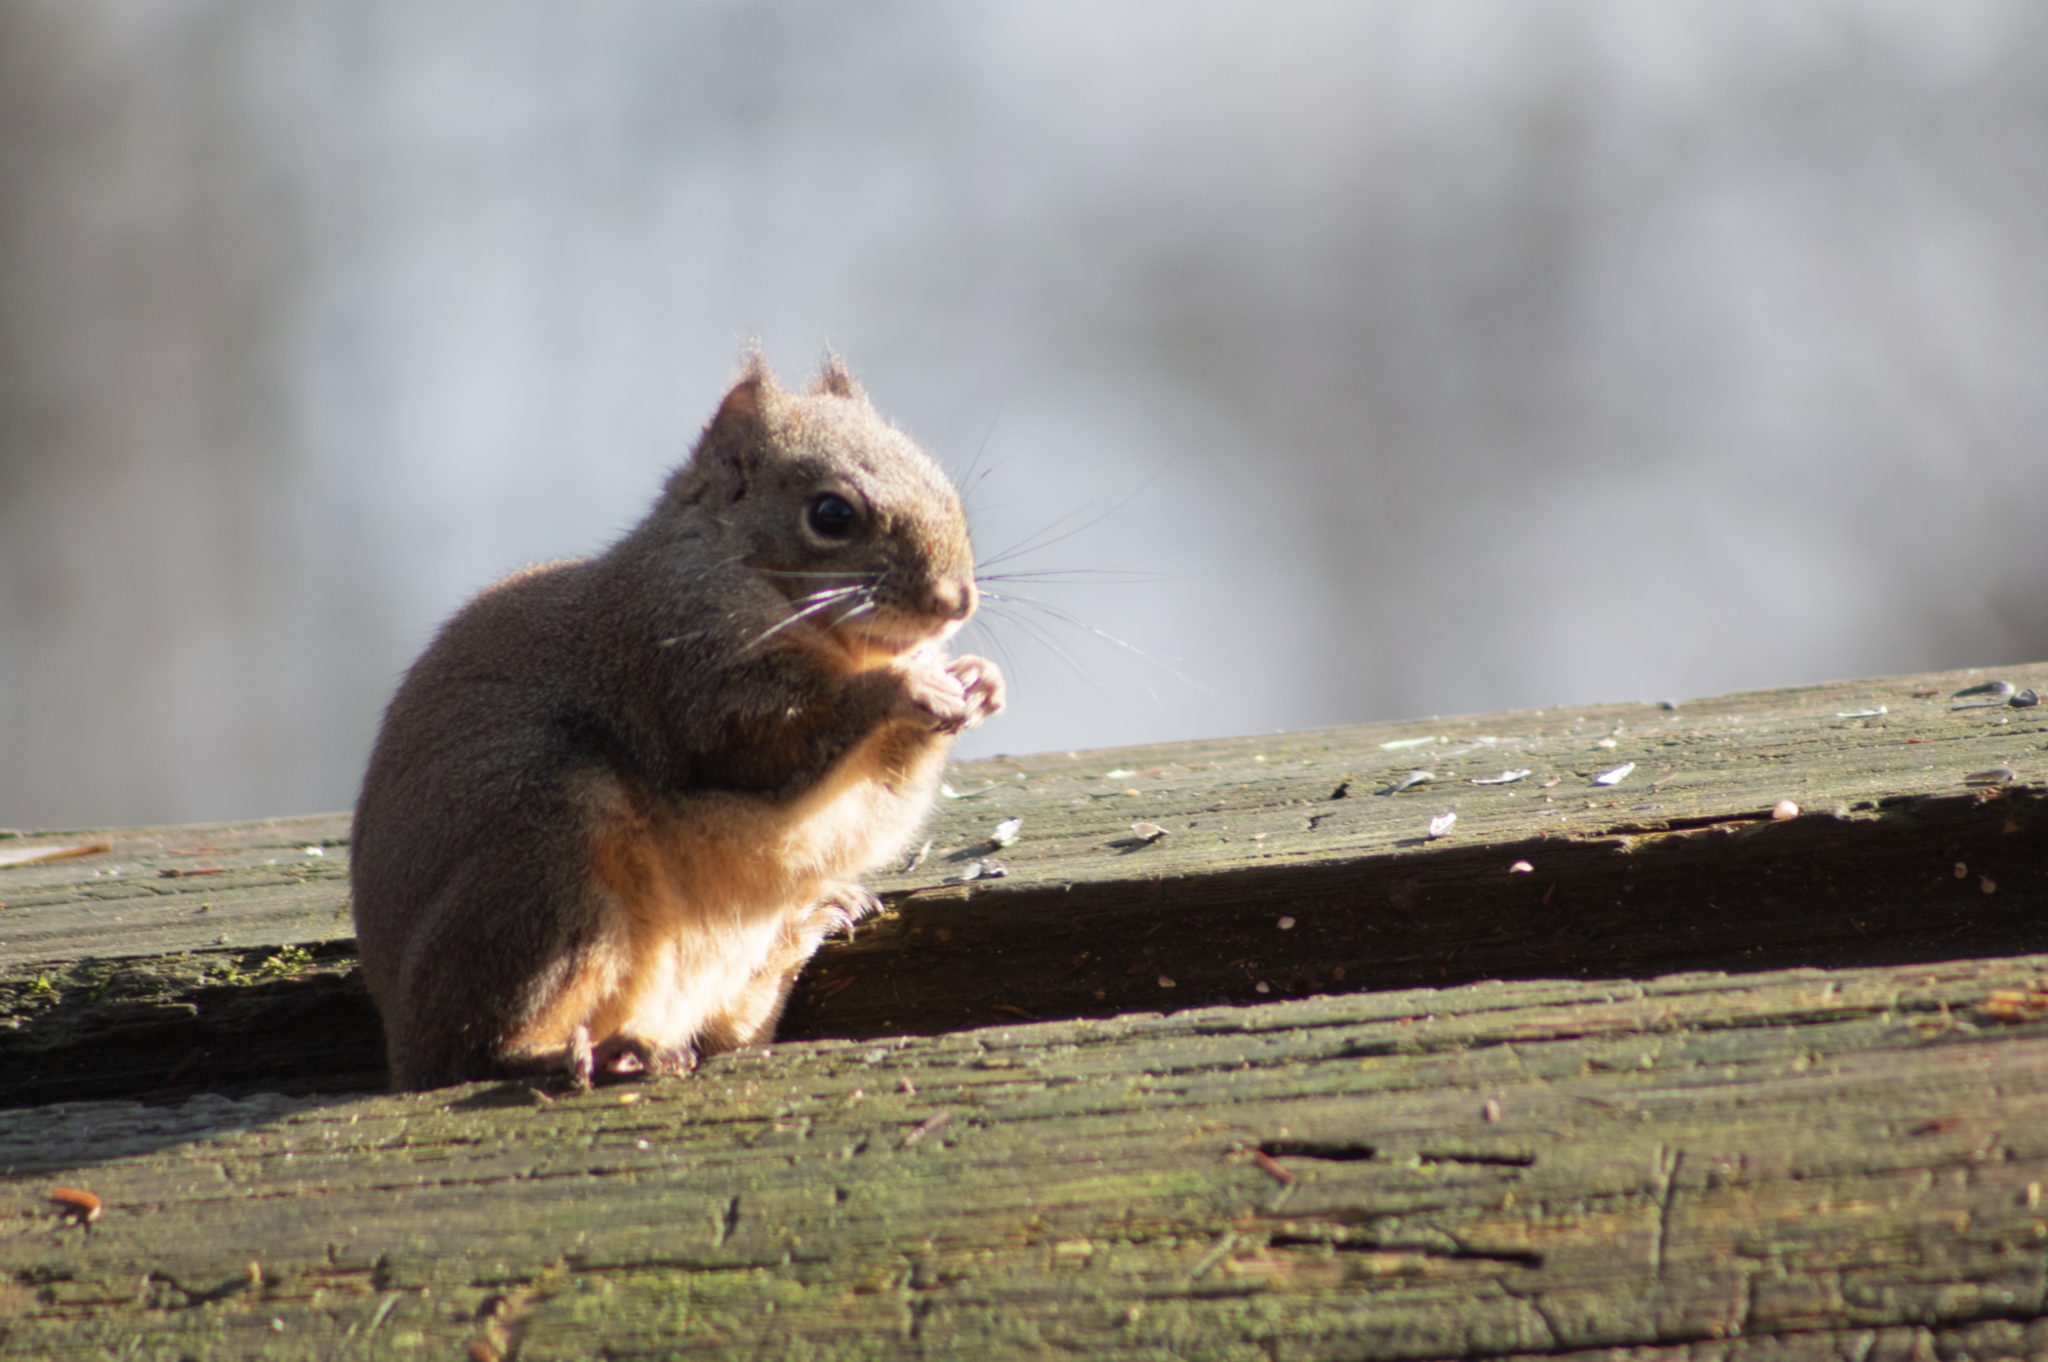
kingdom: Animalia
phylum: Chordata
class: Mammalia
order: Rodentia
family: Sciuridae
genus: Tamiasciurus
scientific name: Tamiasciurus douglasii
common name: Douglas's squirrel
